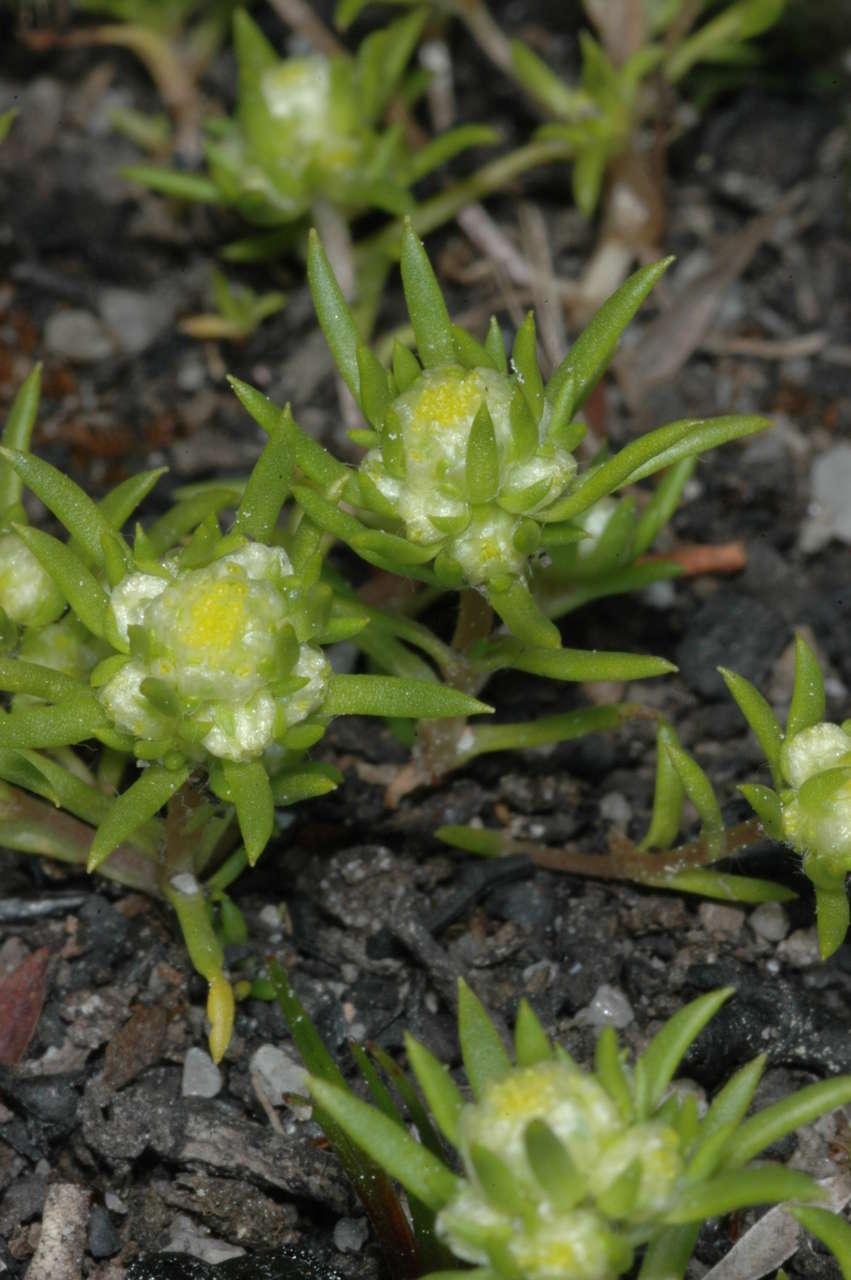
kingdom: Plantae
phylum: Tracheophyta
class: Magnoliopsida
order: Asterales
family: Asteraceae
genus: Siloxerus
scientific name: Siloxerus multiflorus
